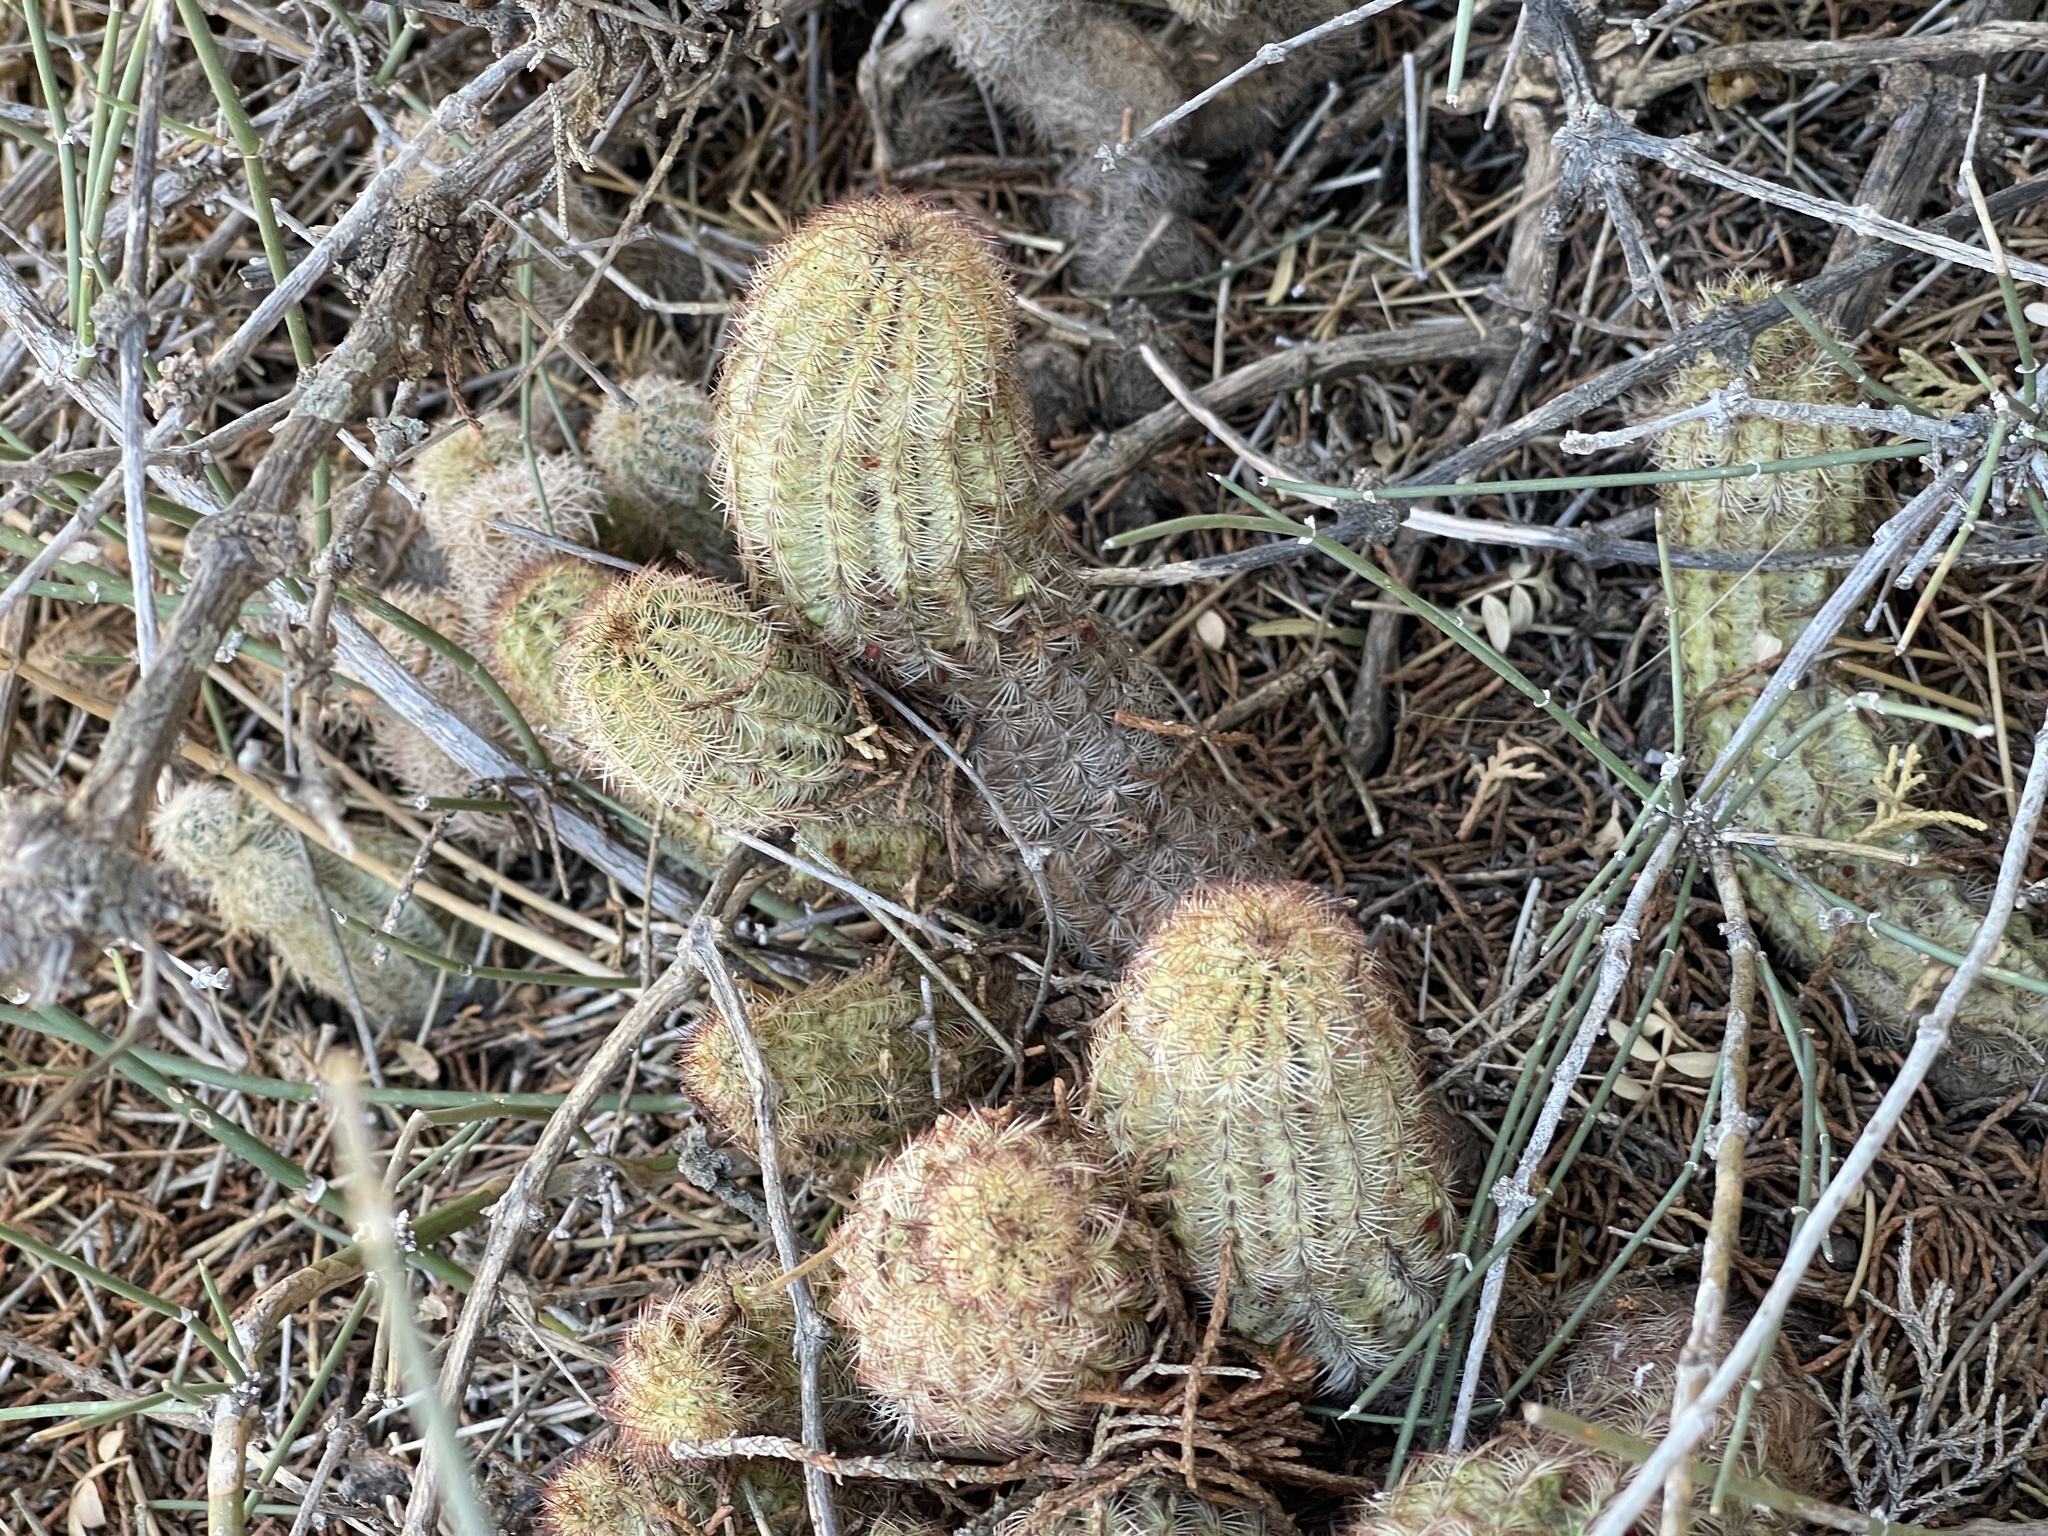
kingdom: Plantae
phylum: Tracheophyta
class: Magnoliopsida
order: Caryophyllales
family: Cactaceae
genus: Echinocereus
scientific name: Echinocereus reichenbachii
